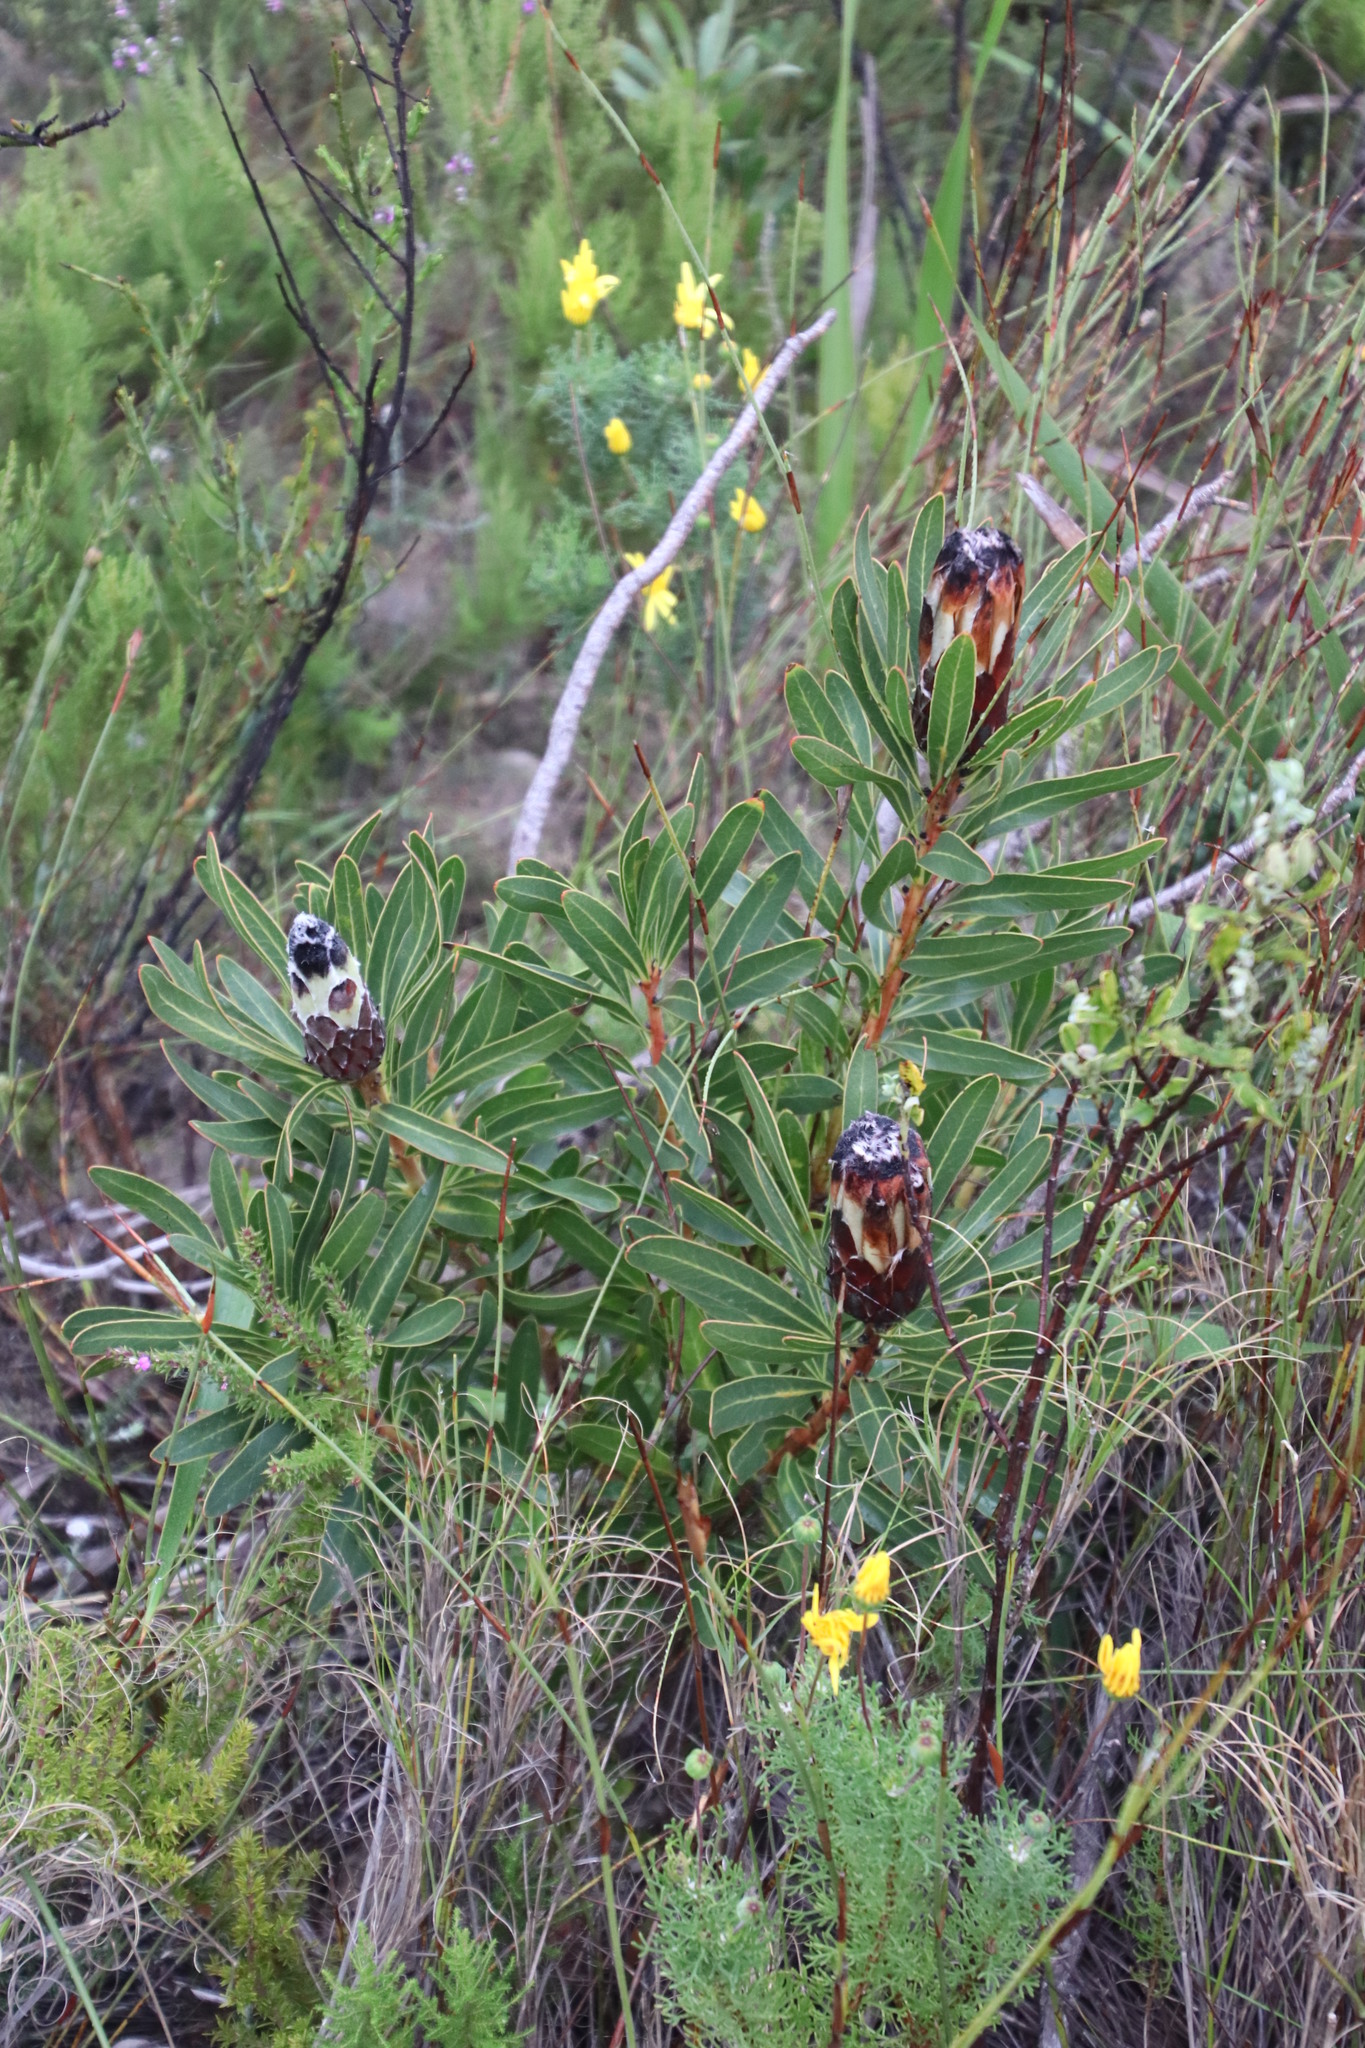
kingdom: Plantae
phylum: Tracheophyta
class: Magnoliopsida
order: Proteales
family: Proteaceae
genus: Protea
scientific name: Protea lepidocarpodendron
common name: Black-bearded protea
